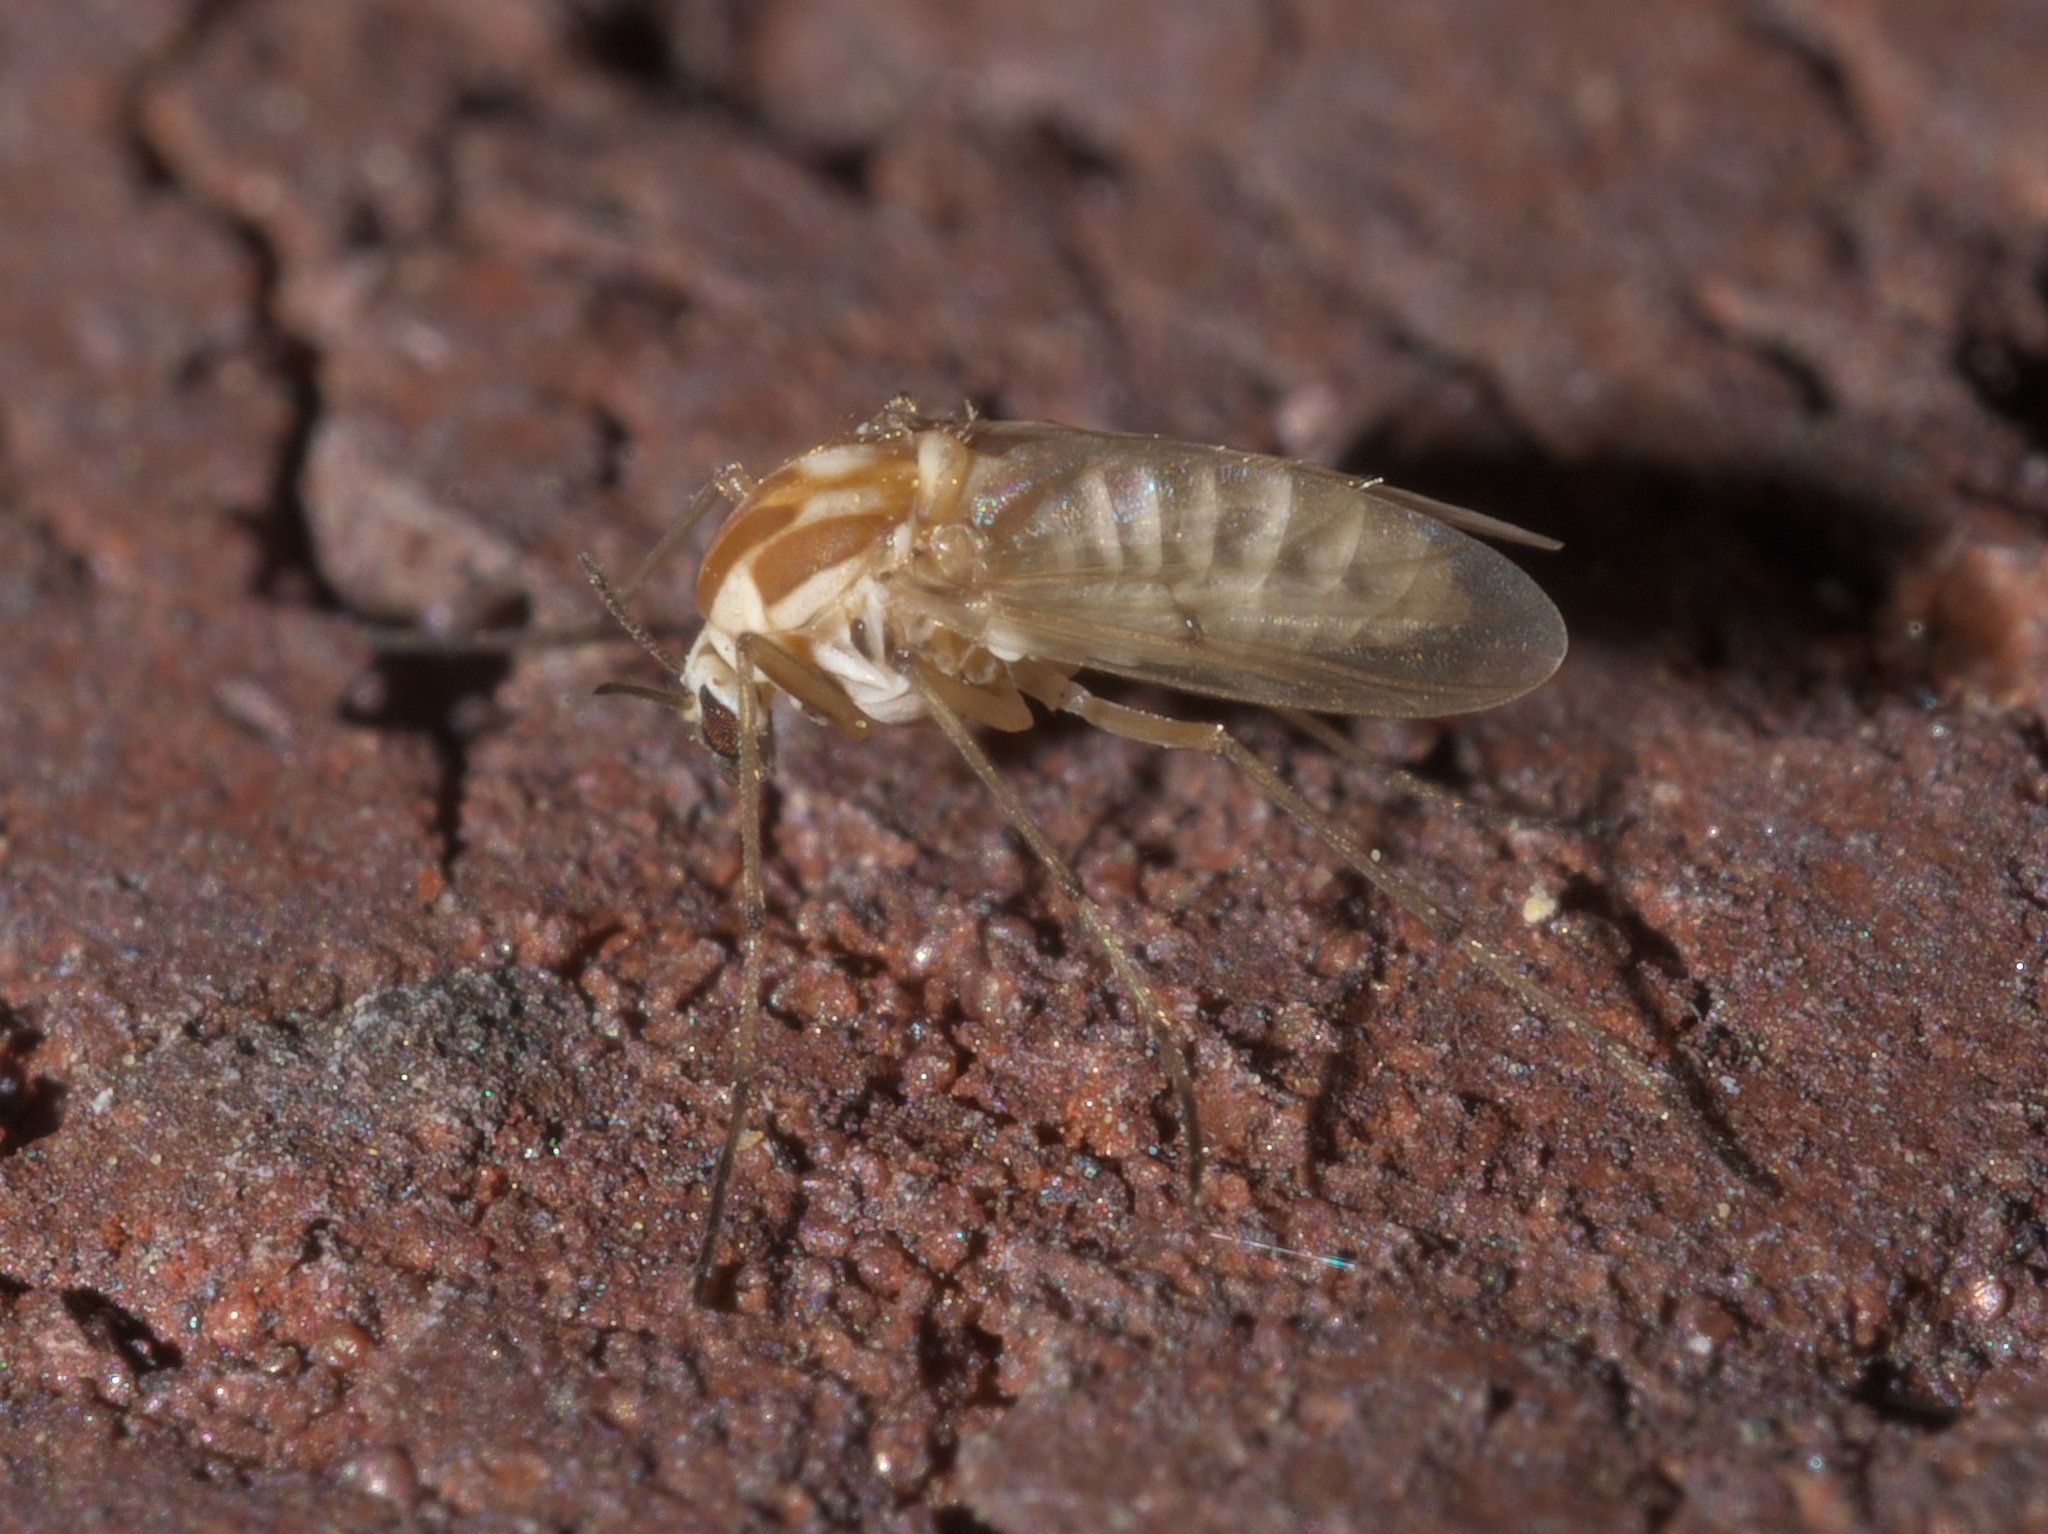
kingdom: Animalia
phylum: Arthropoda
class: Insecta
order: Diptera
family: Chironomidae
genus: Procladius
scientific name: Procladius bellus
